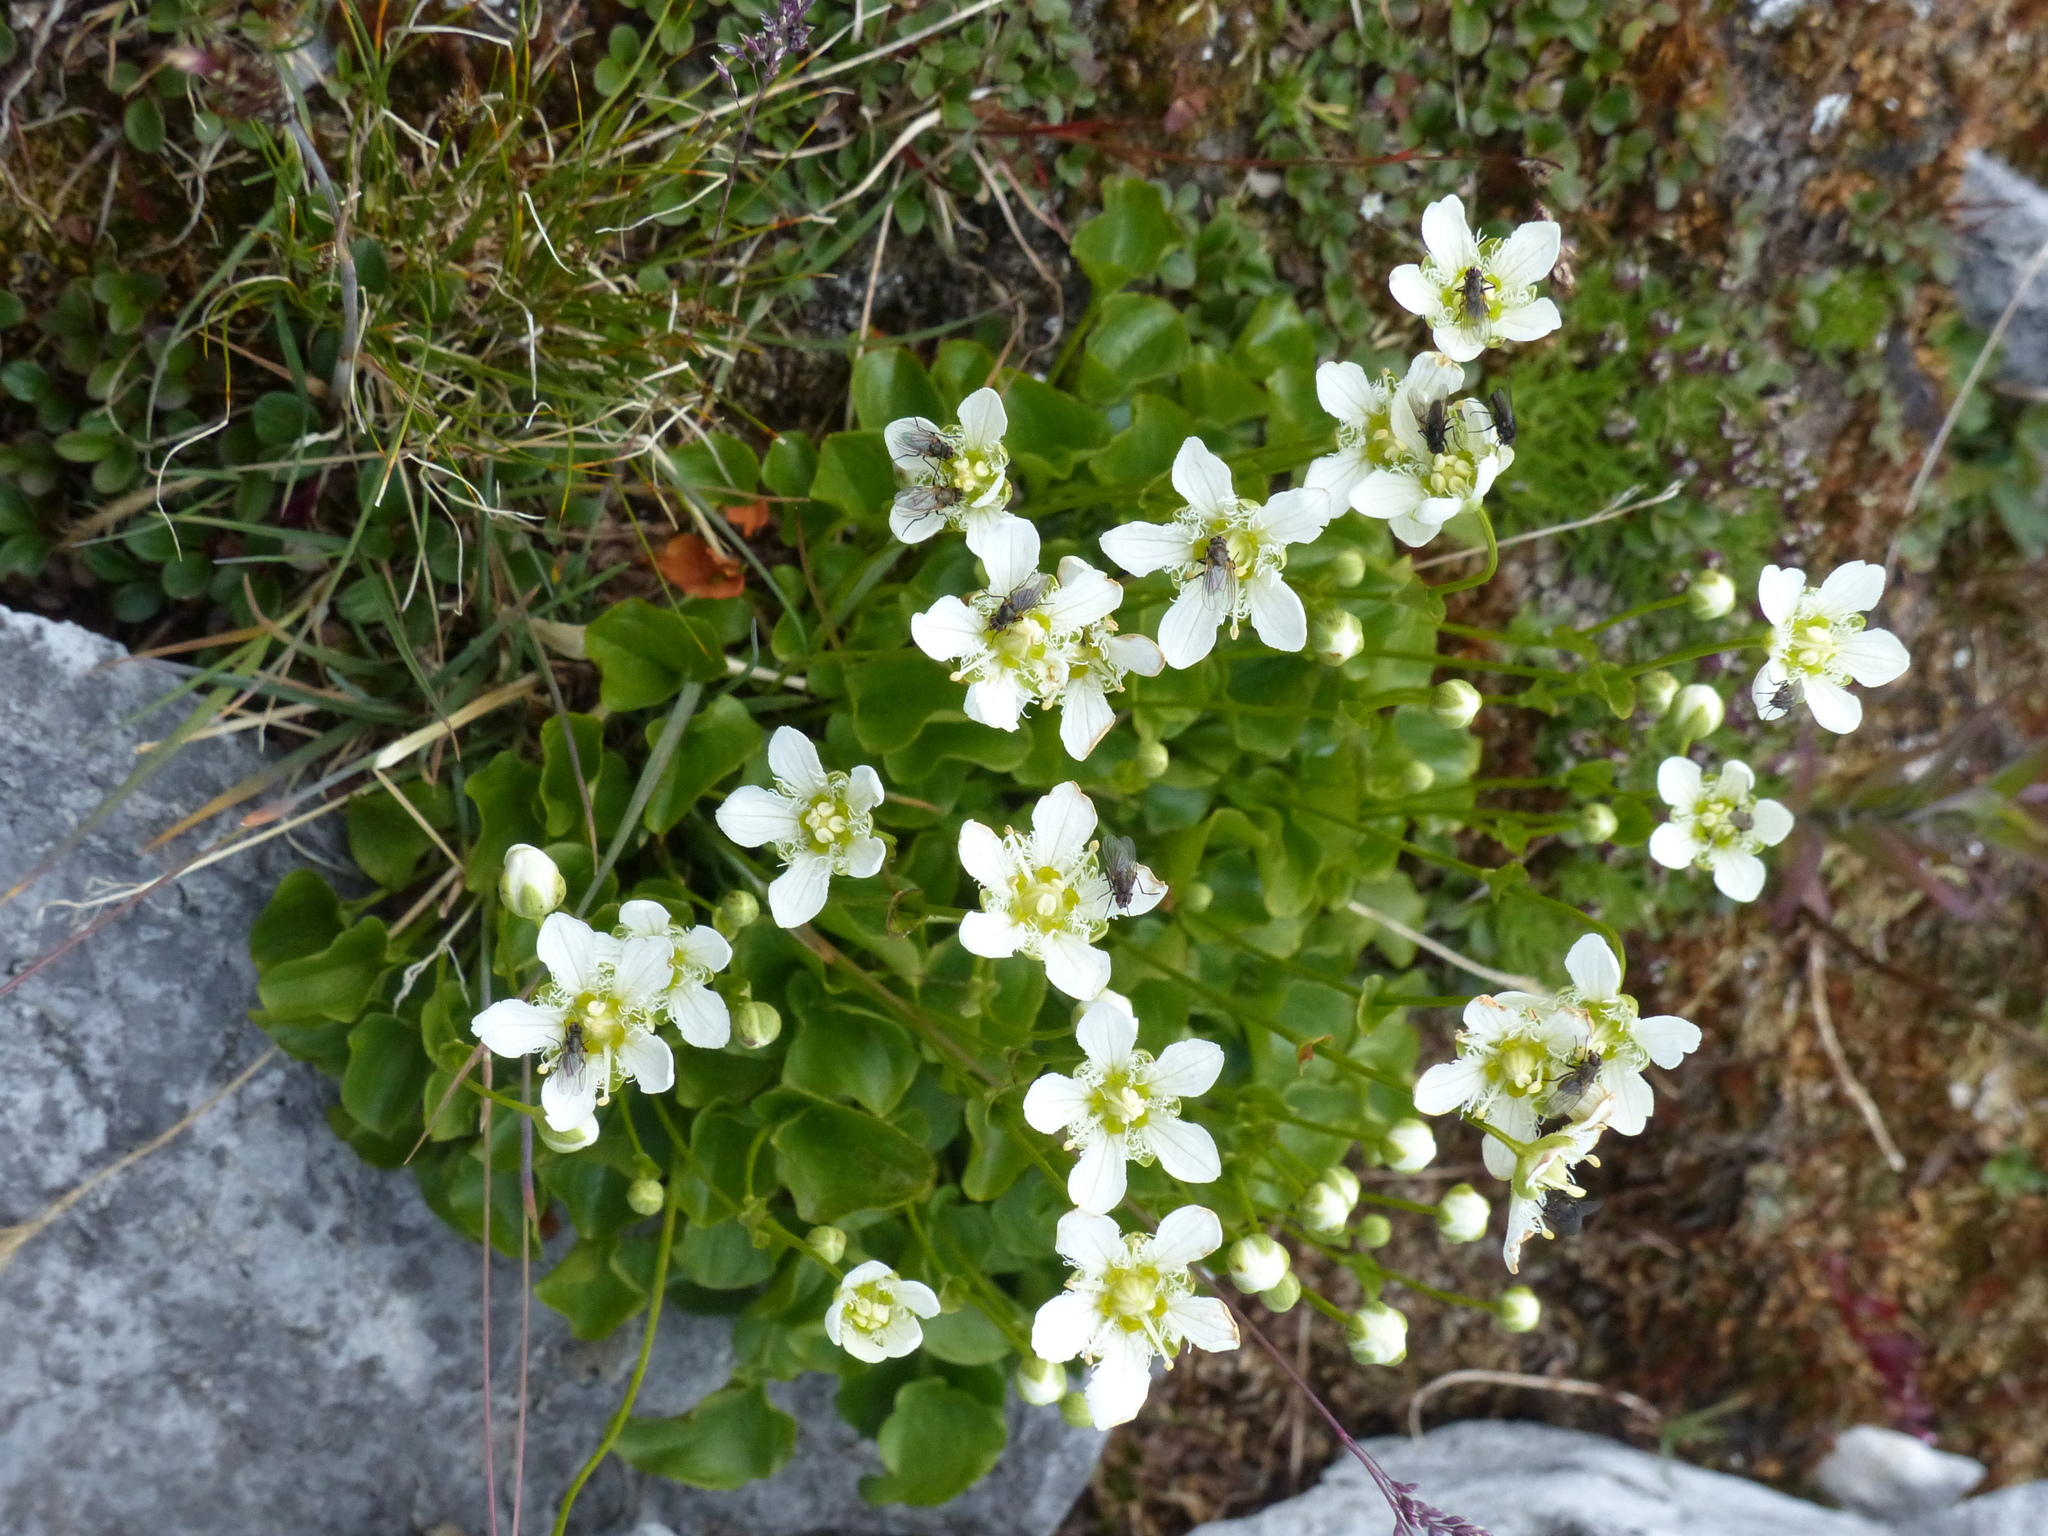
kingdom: Plantae
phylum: Tracheophyta
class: Magnoliopsida
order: Celastrales
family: Parnassiaceae
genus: Parnassia
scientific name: Parnassia fimbriata
